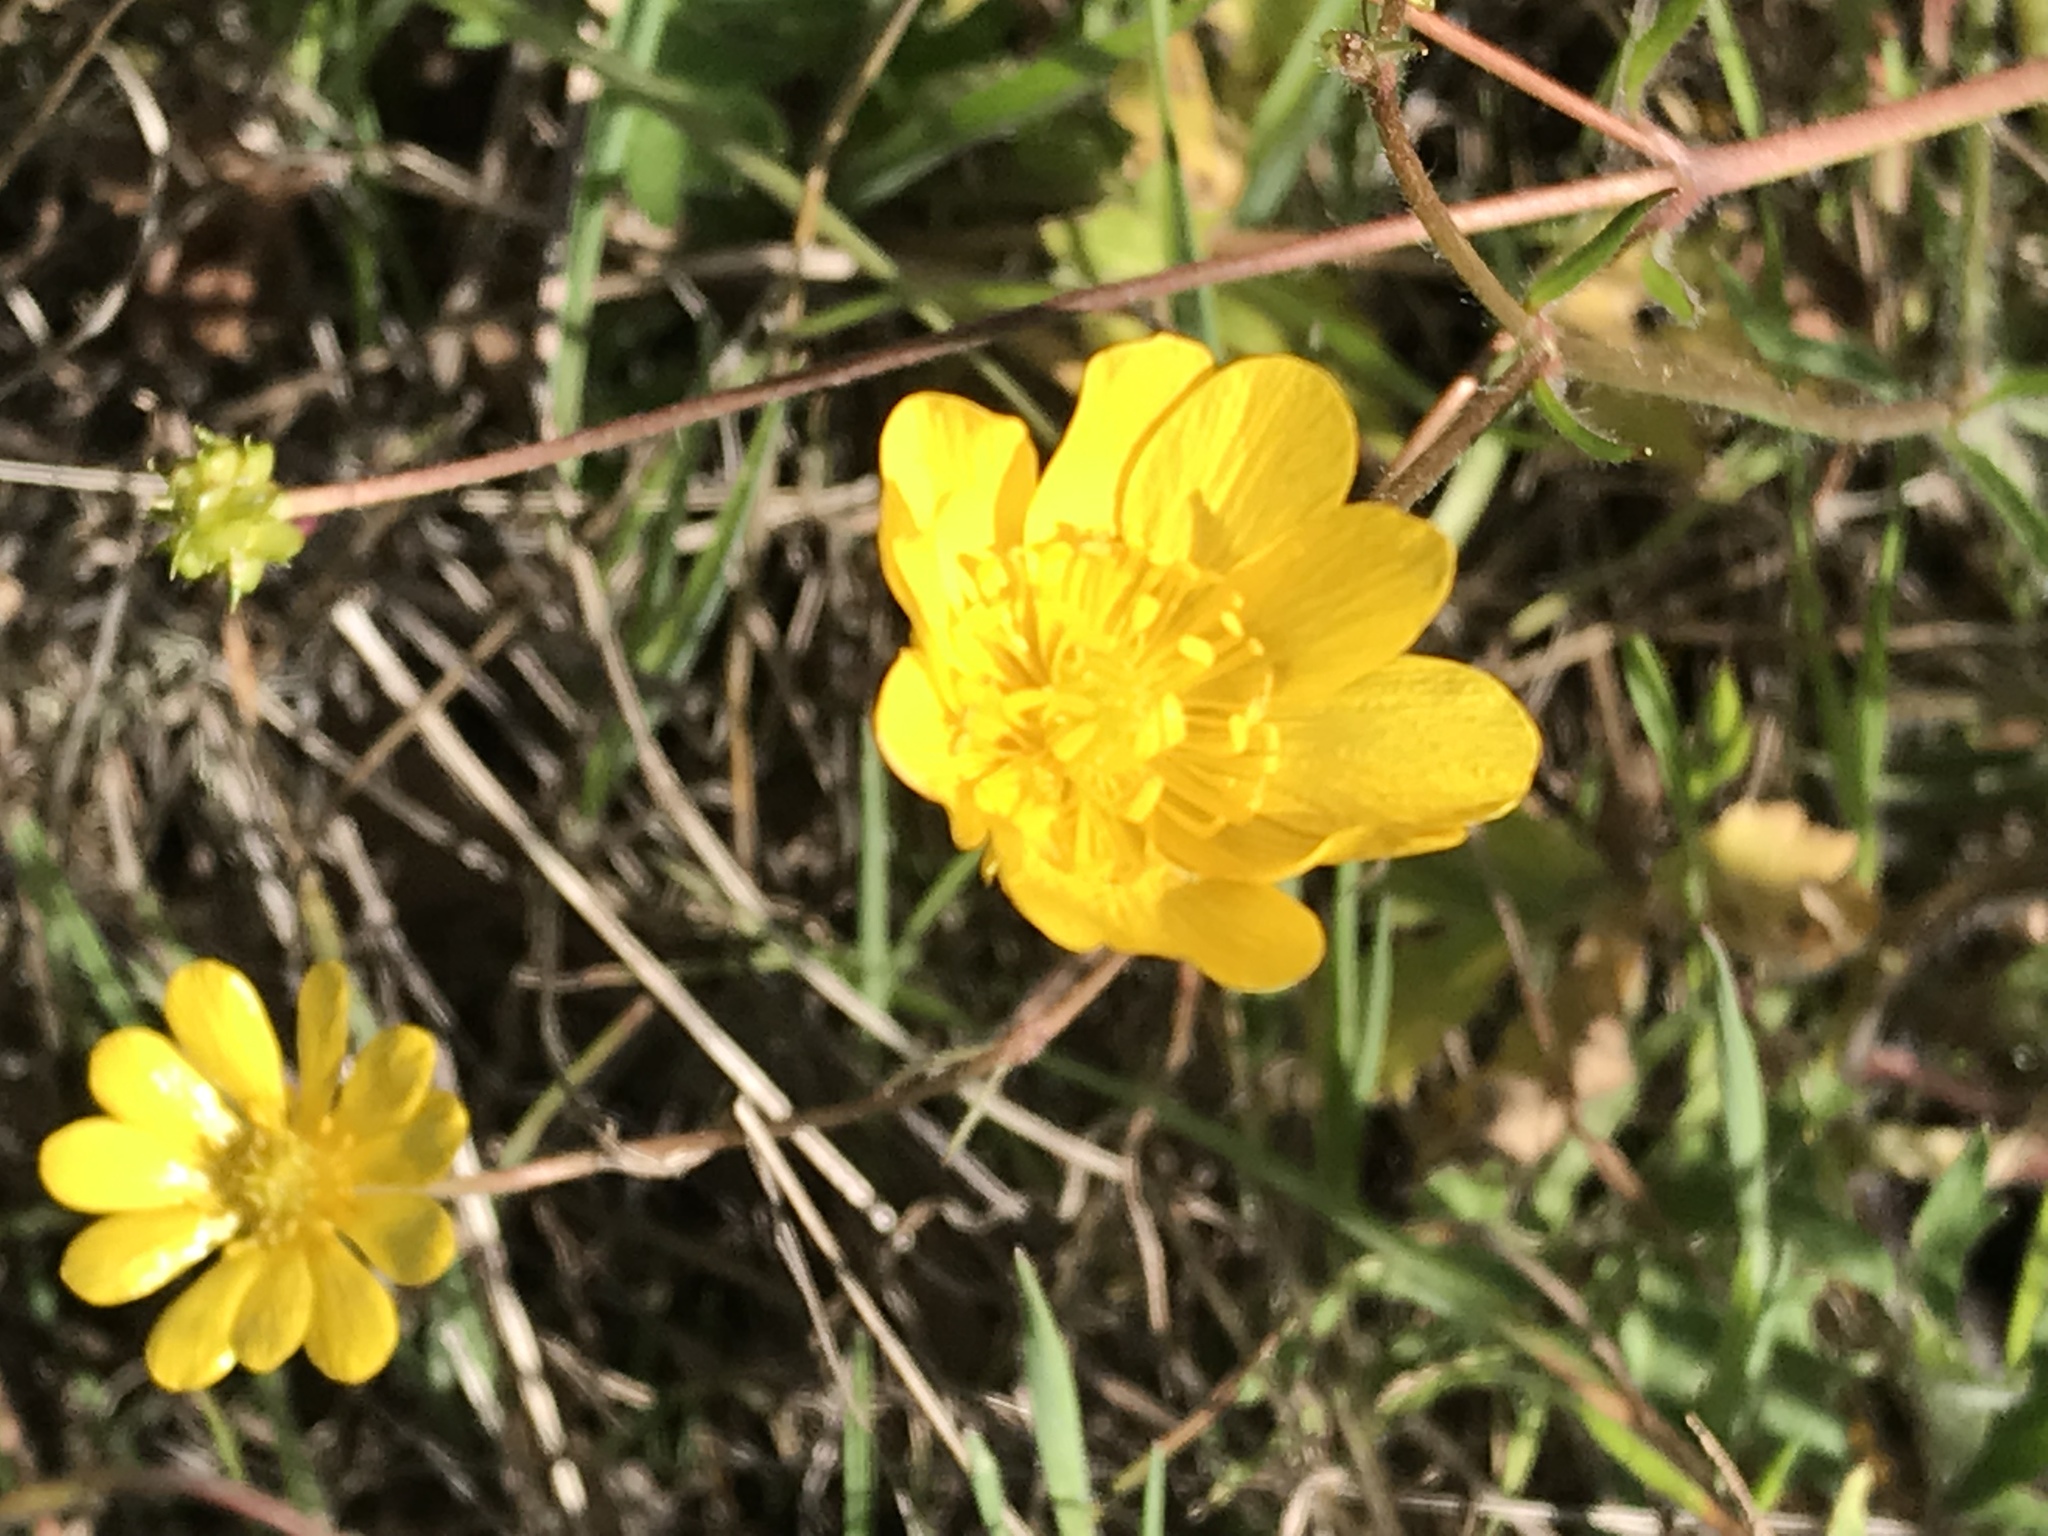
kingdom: Plantae
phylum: Tracheophyta
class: Magnoliopsida
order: Ranunculales
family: Ranunculaceae
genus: Ranunculus
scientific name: Ranunculus californicus
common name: California buttercup
